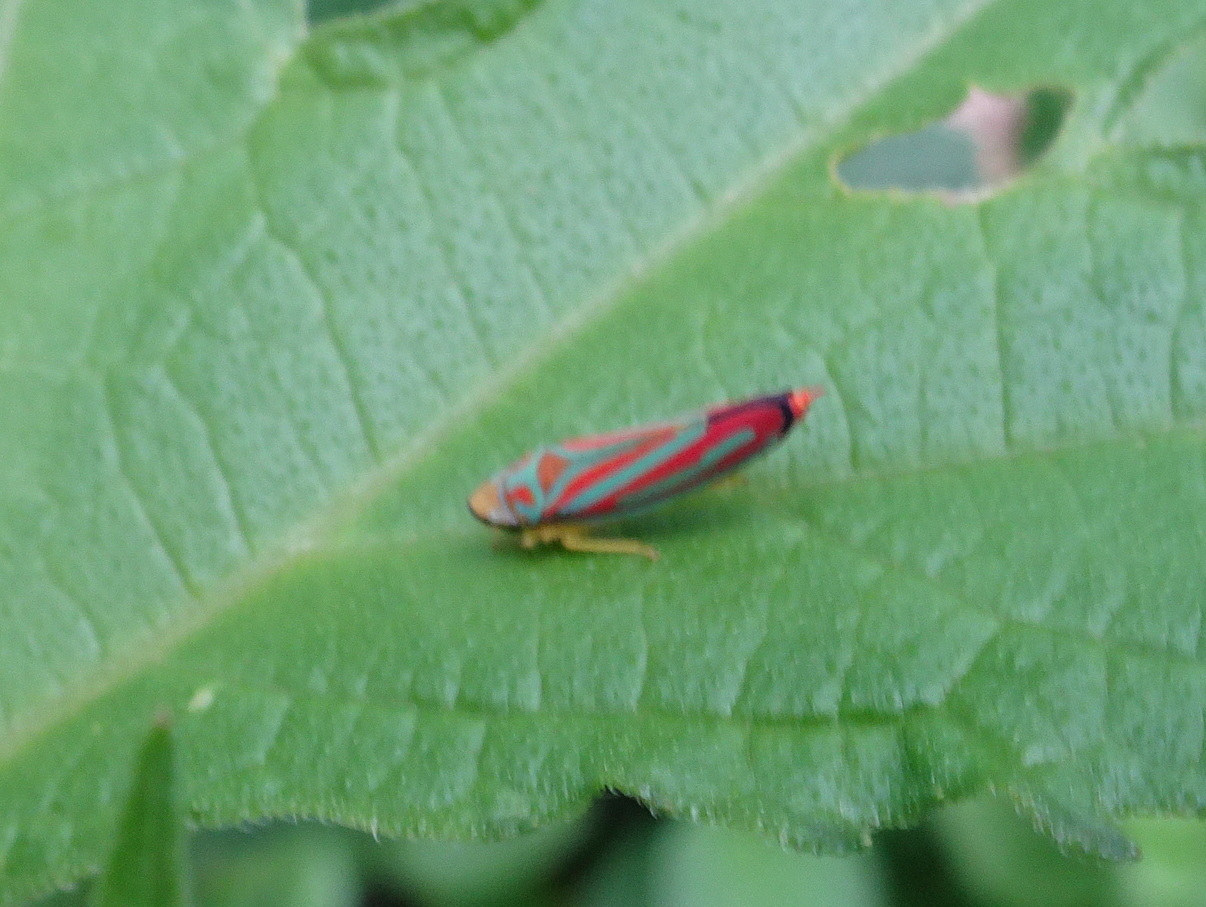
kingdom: Animalia
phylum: Arthropoda
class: Insecta
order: Hemiptera
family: Cicadellidae
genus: Graphocephala
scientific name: Graphocephala coccinea
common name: Candy-striped leafhopper
